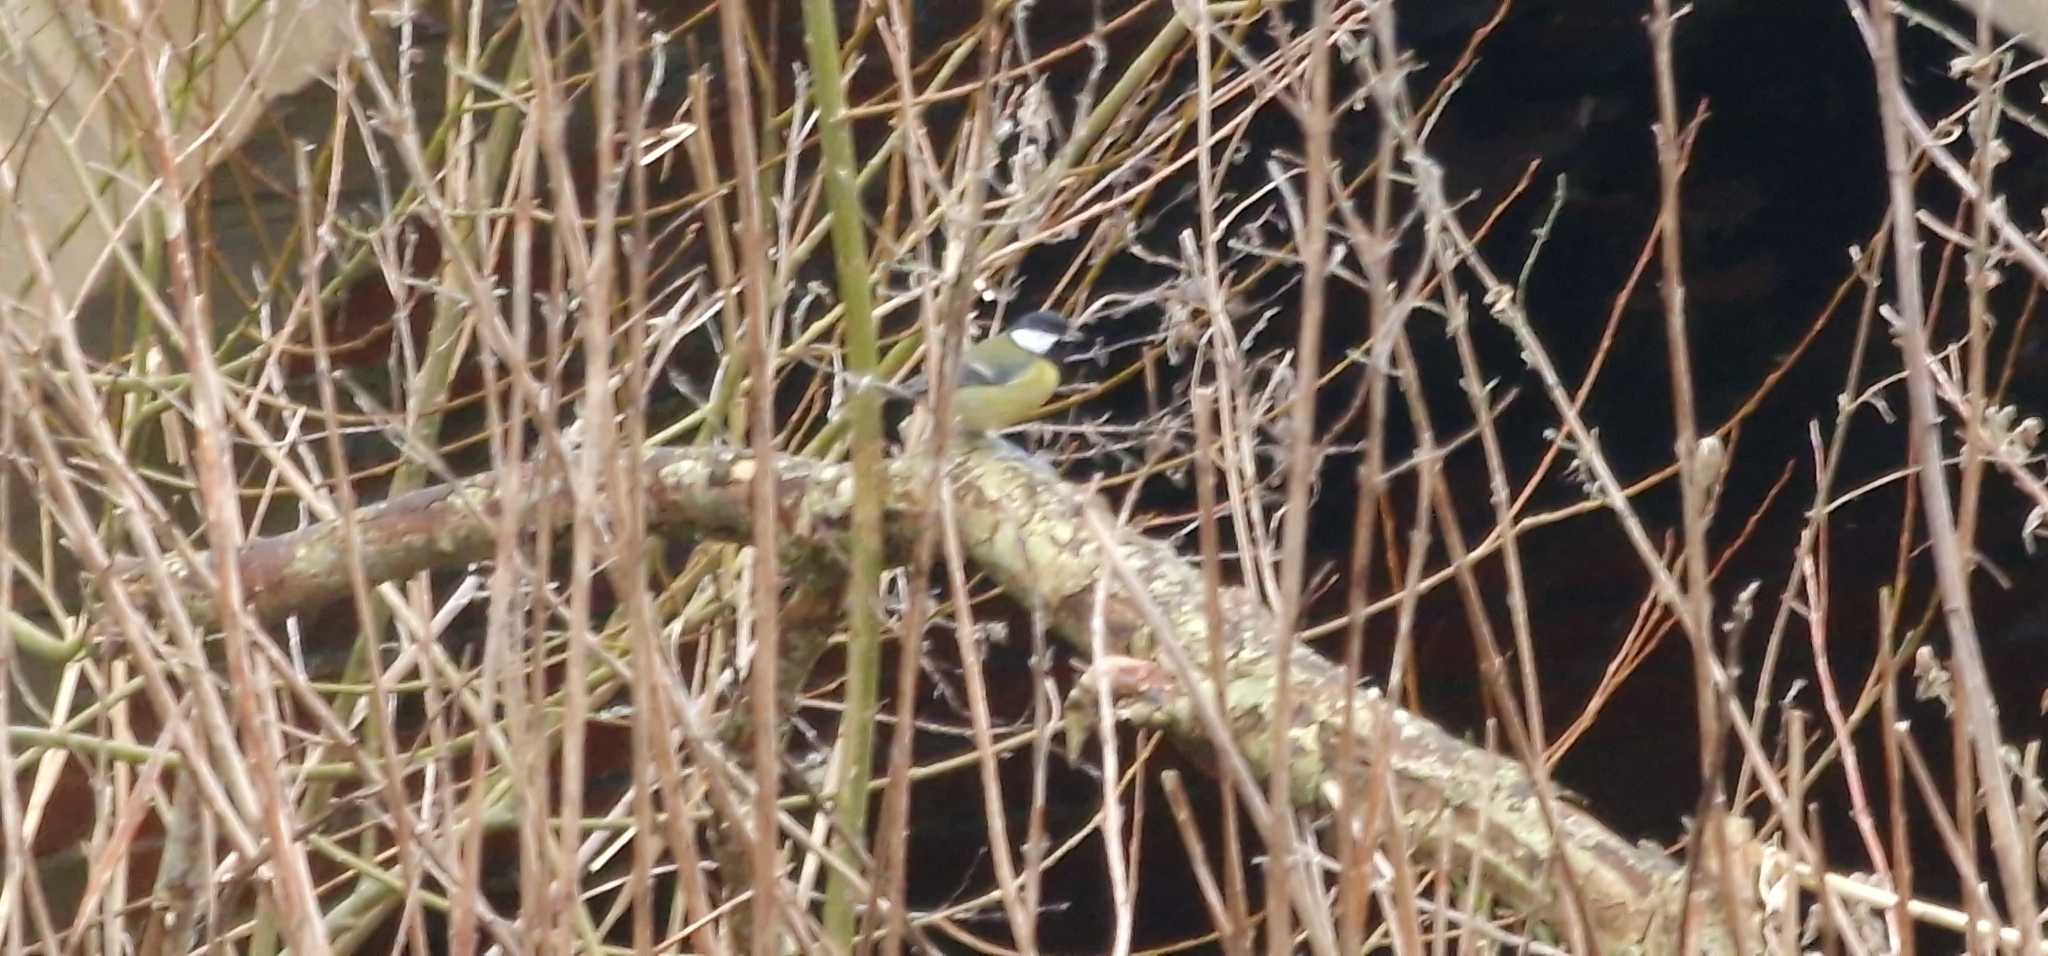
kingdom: Animalia
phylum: Chordata
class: Aves
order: Passeriformes
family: Paridae
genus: Parus
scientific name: Parus major
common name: Great tit
